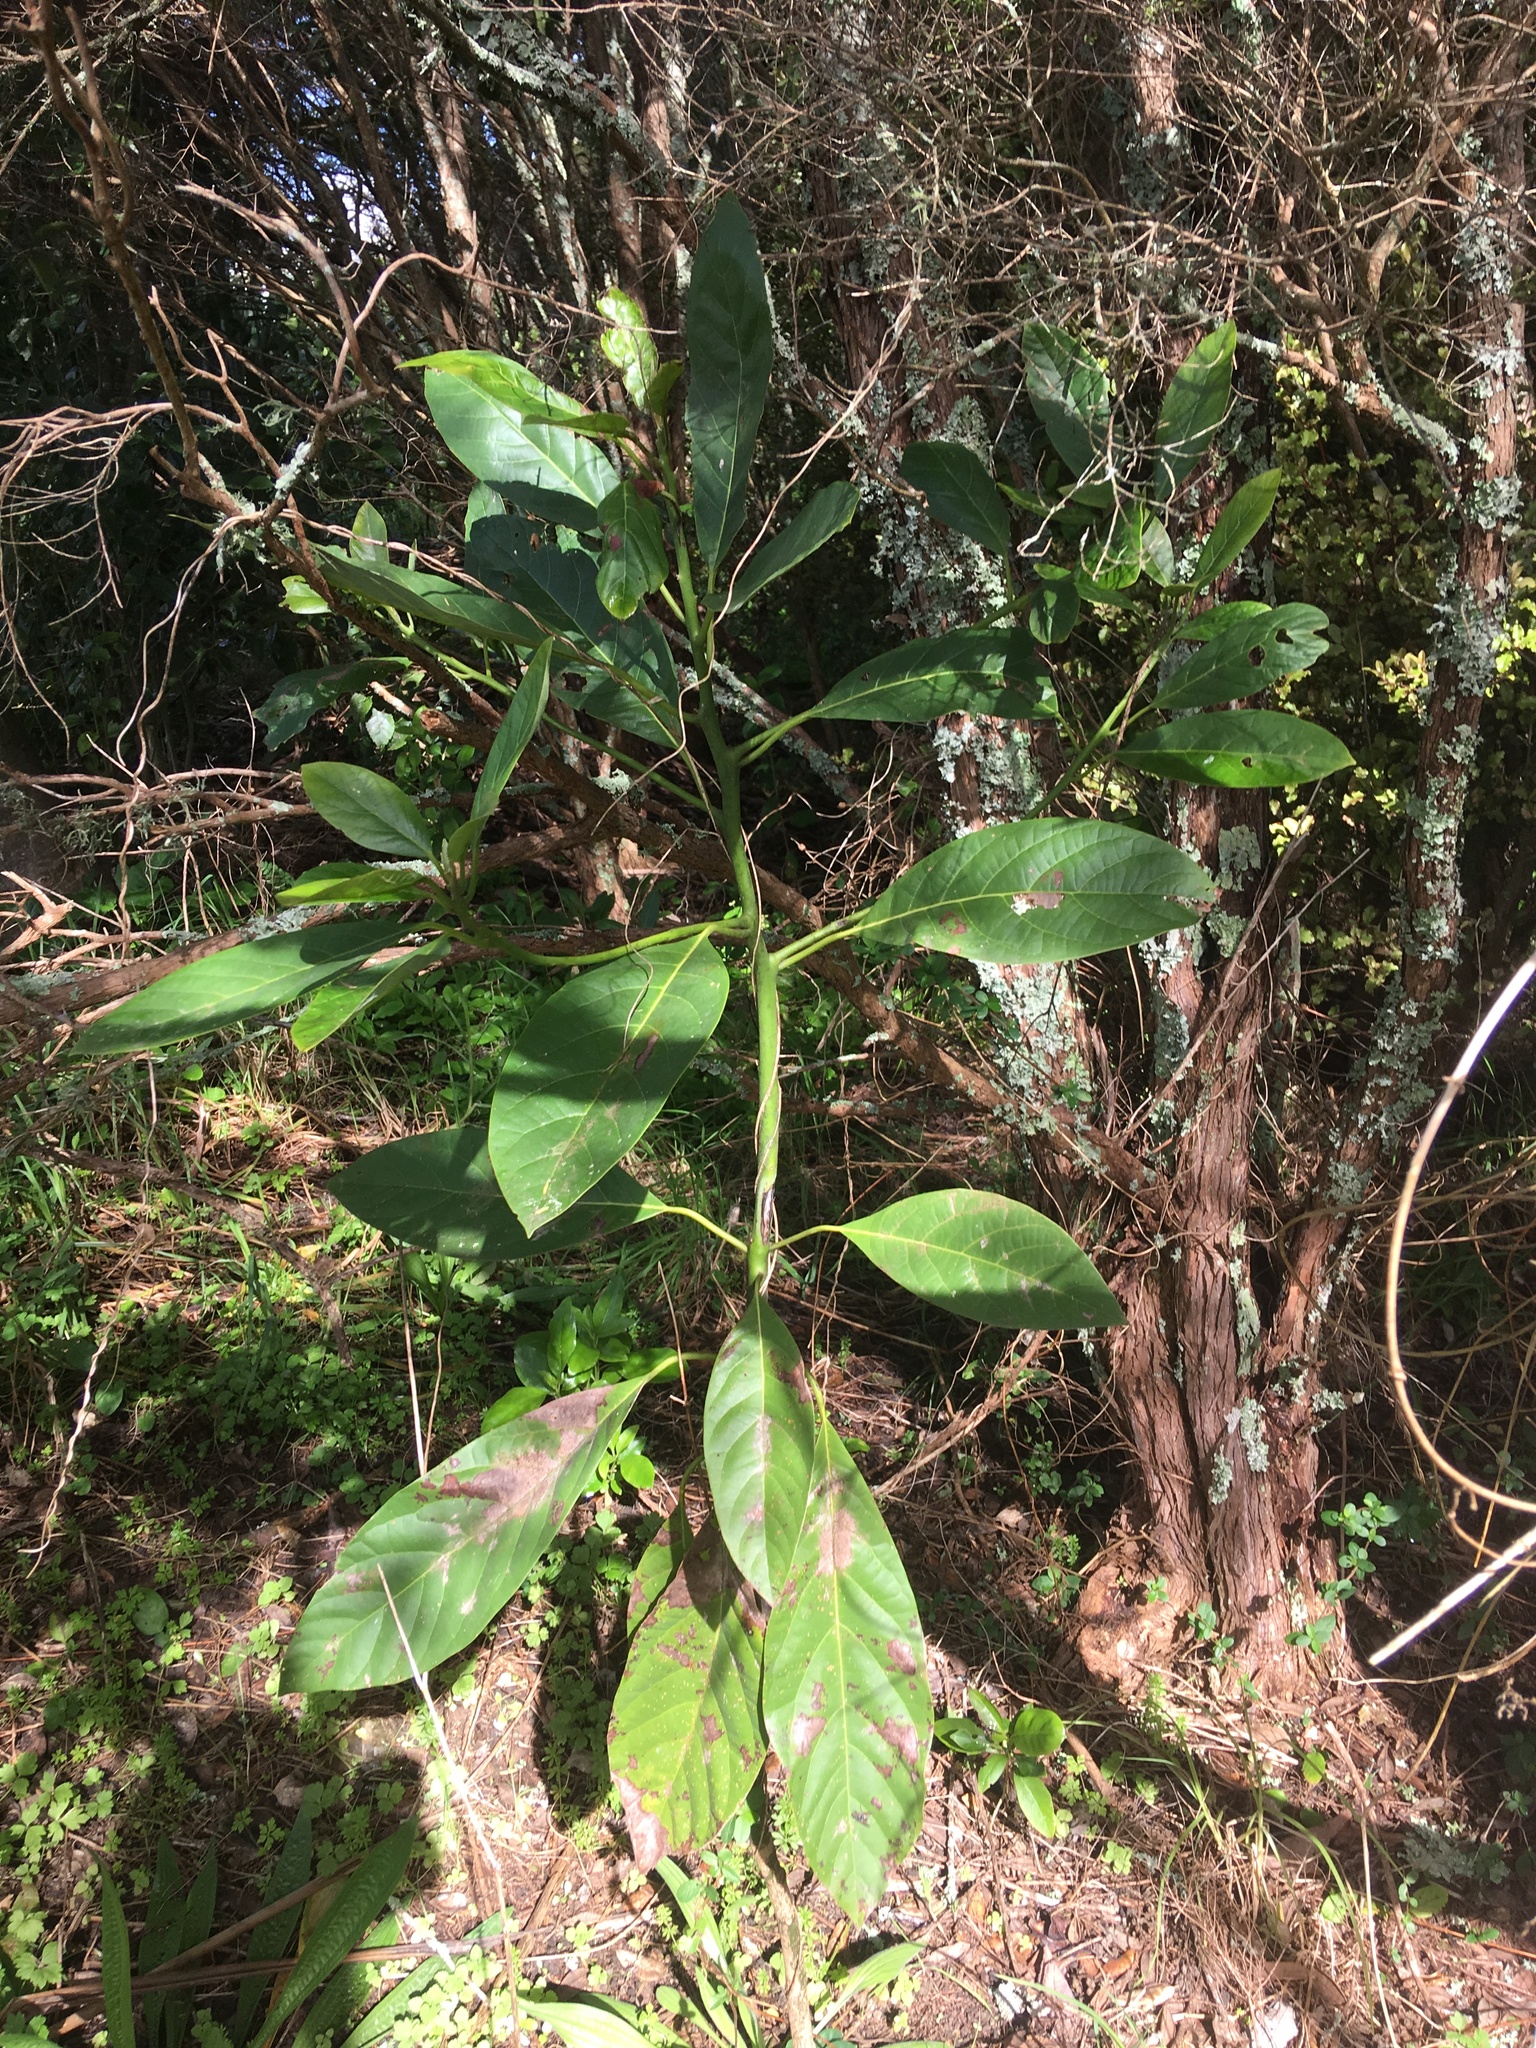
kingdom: Plantae
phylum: Tracheophyta
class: Magnoliopsida
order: Laurales
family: Lauraceae
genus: Persea
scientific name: Persea americana
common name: Avocado
